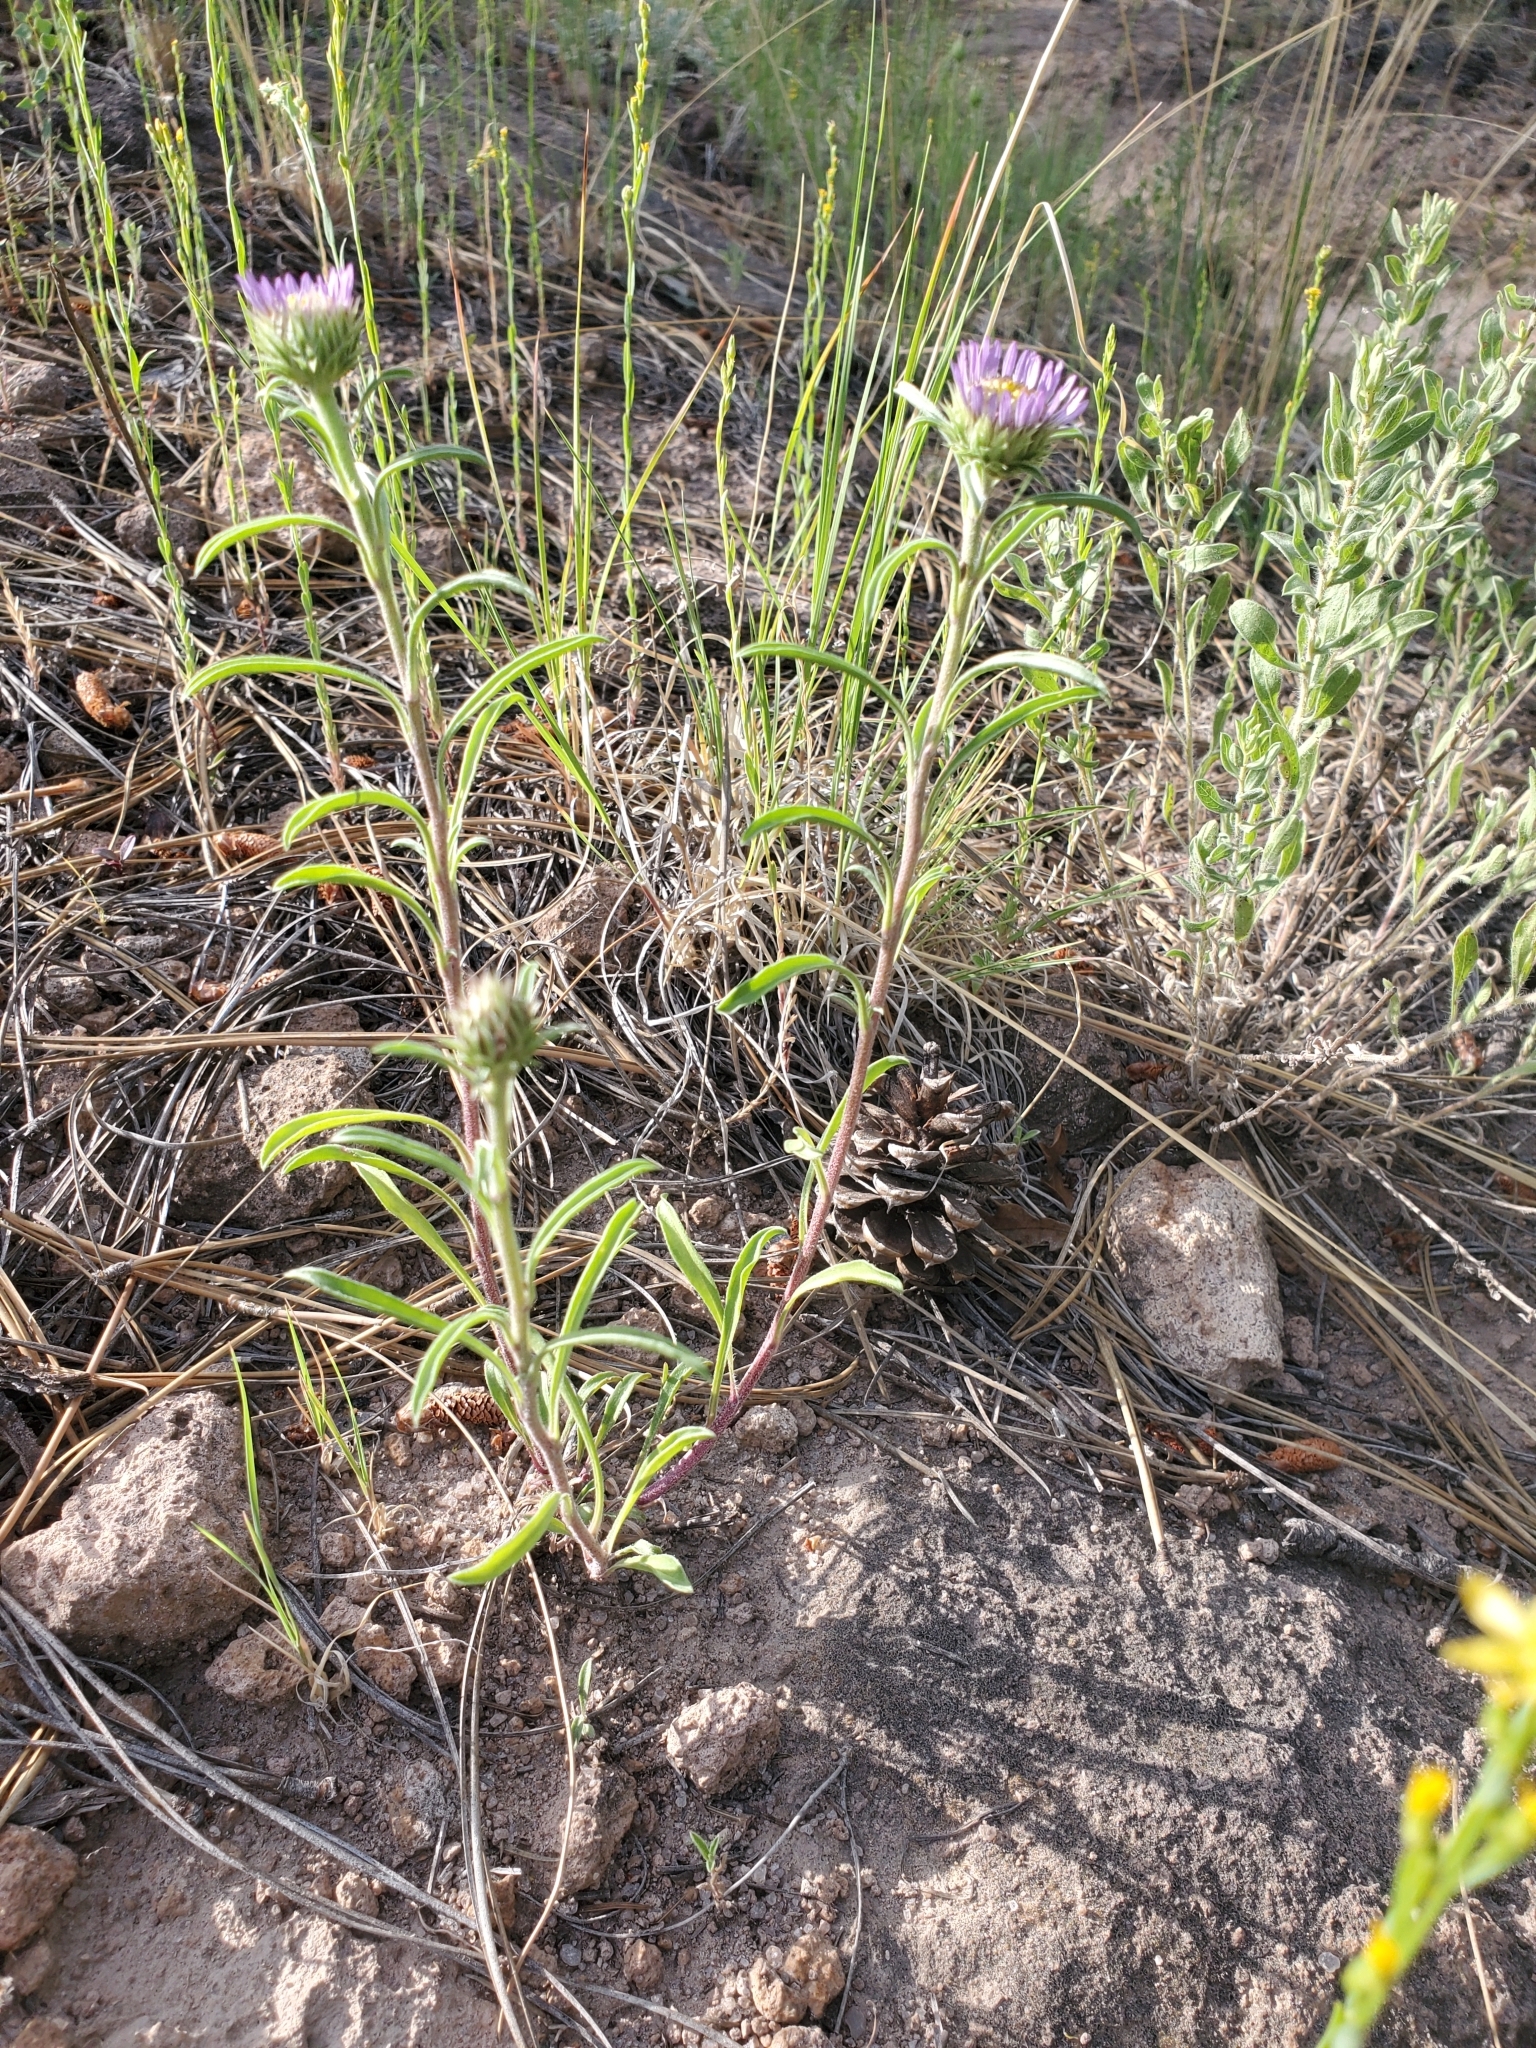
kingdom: Plantae
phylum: Tracheophyta
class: Magnoliopsida
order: Asterales
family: Asteraceae
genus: Townsendia
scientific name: Townsendia eximia
